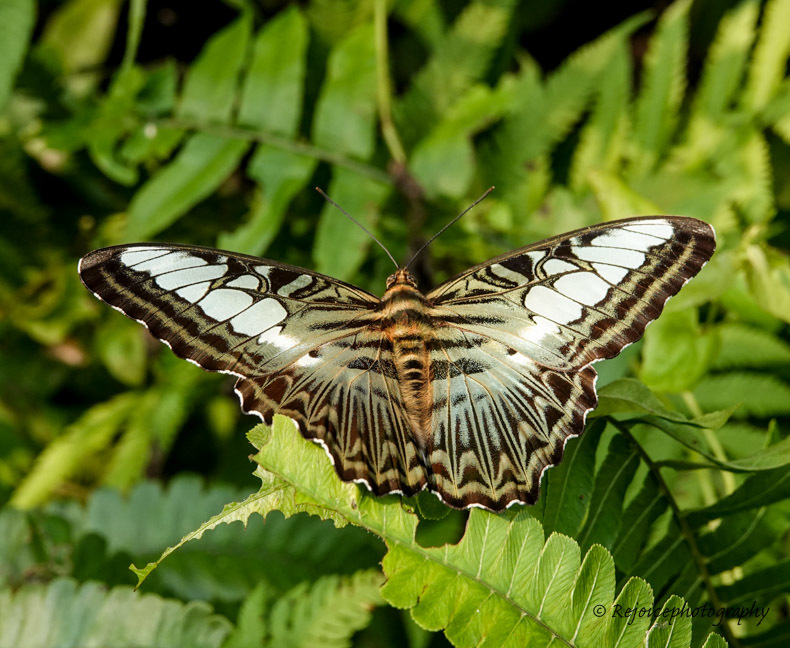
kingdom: Animalia
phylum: Arthropoda
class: Insecta
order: Lepidoptera
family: Nymphalidae
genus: Kallima
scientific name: Kallima sylvia
